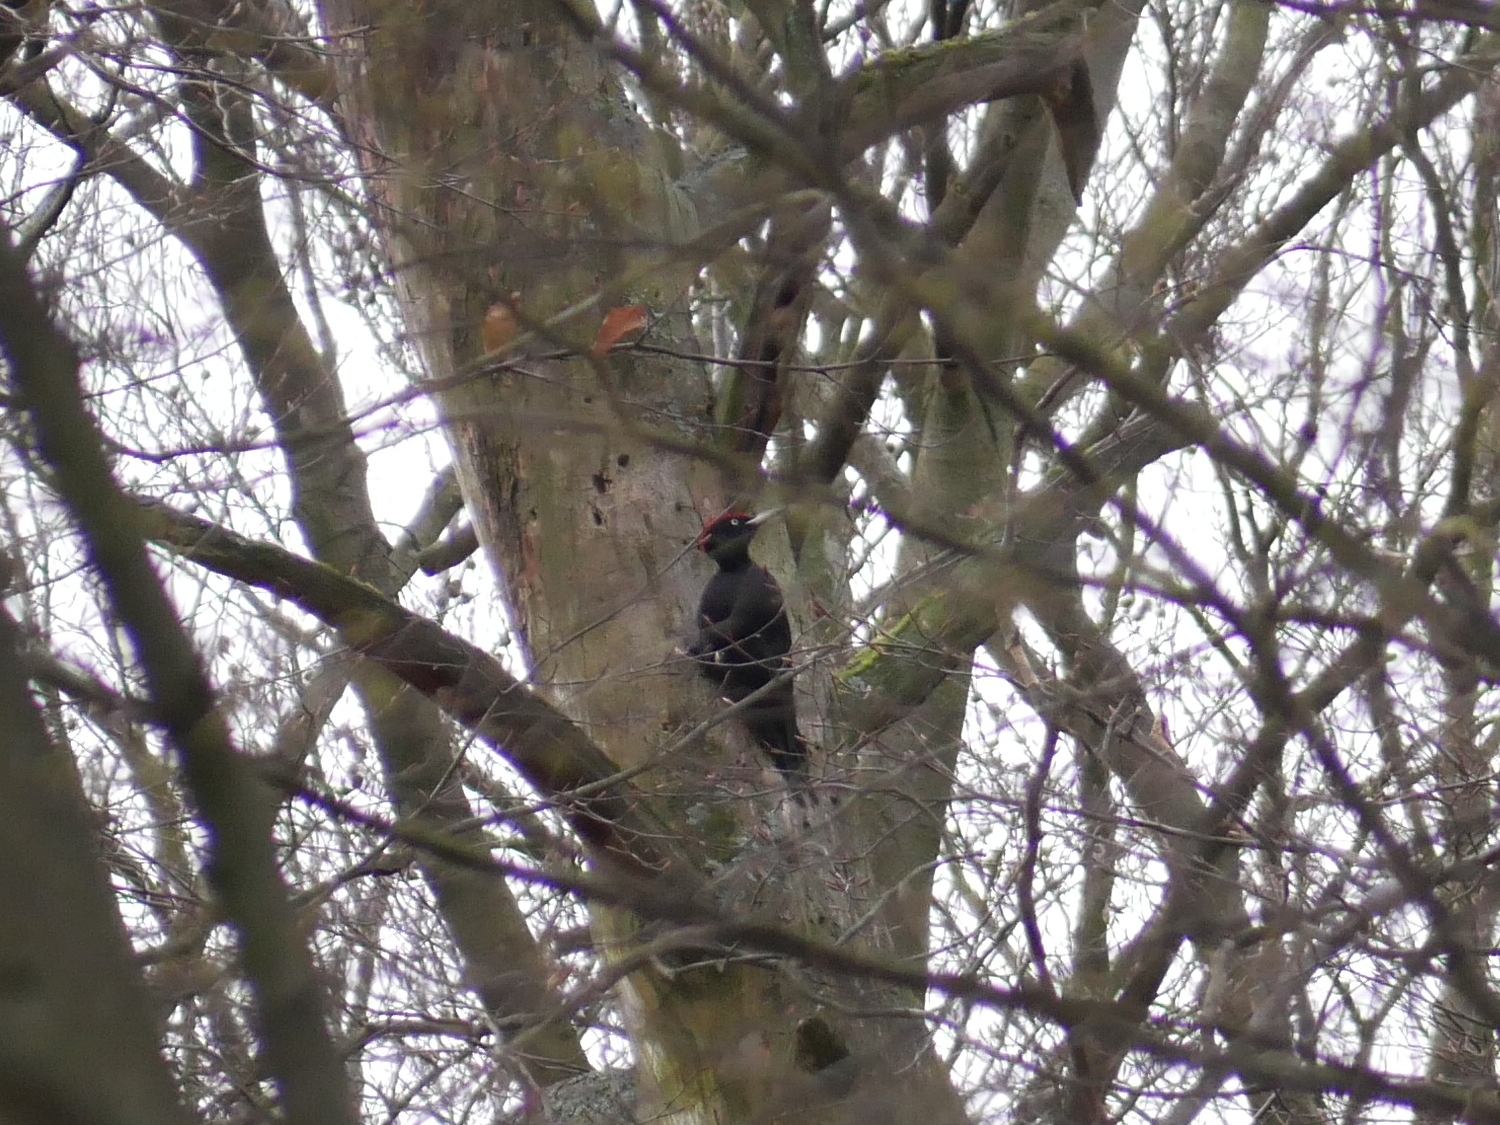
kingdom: Animalia
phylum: Chordata
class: Aves
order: Piciformes
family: Picidae
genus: Dryocopus
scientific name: Dryocopus martius
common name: Black woodpecker
